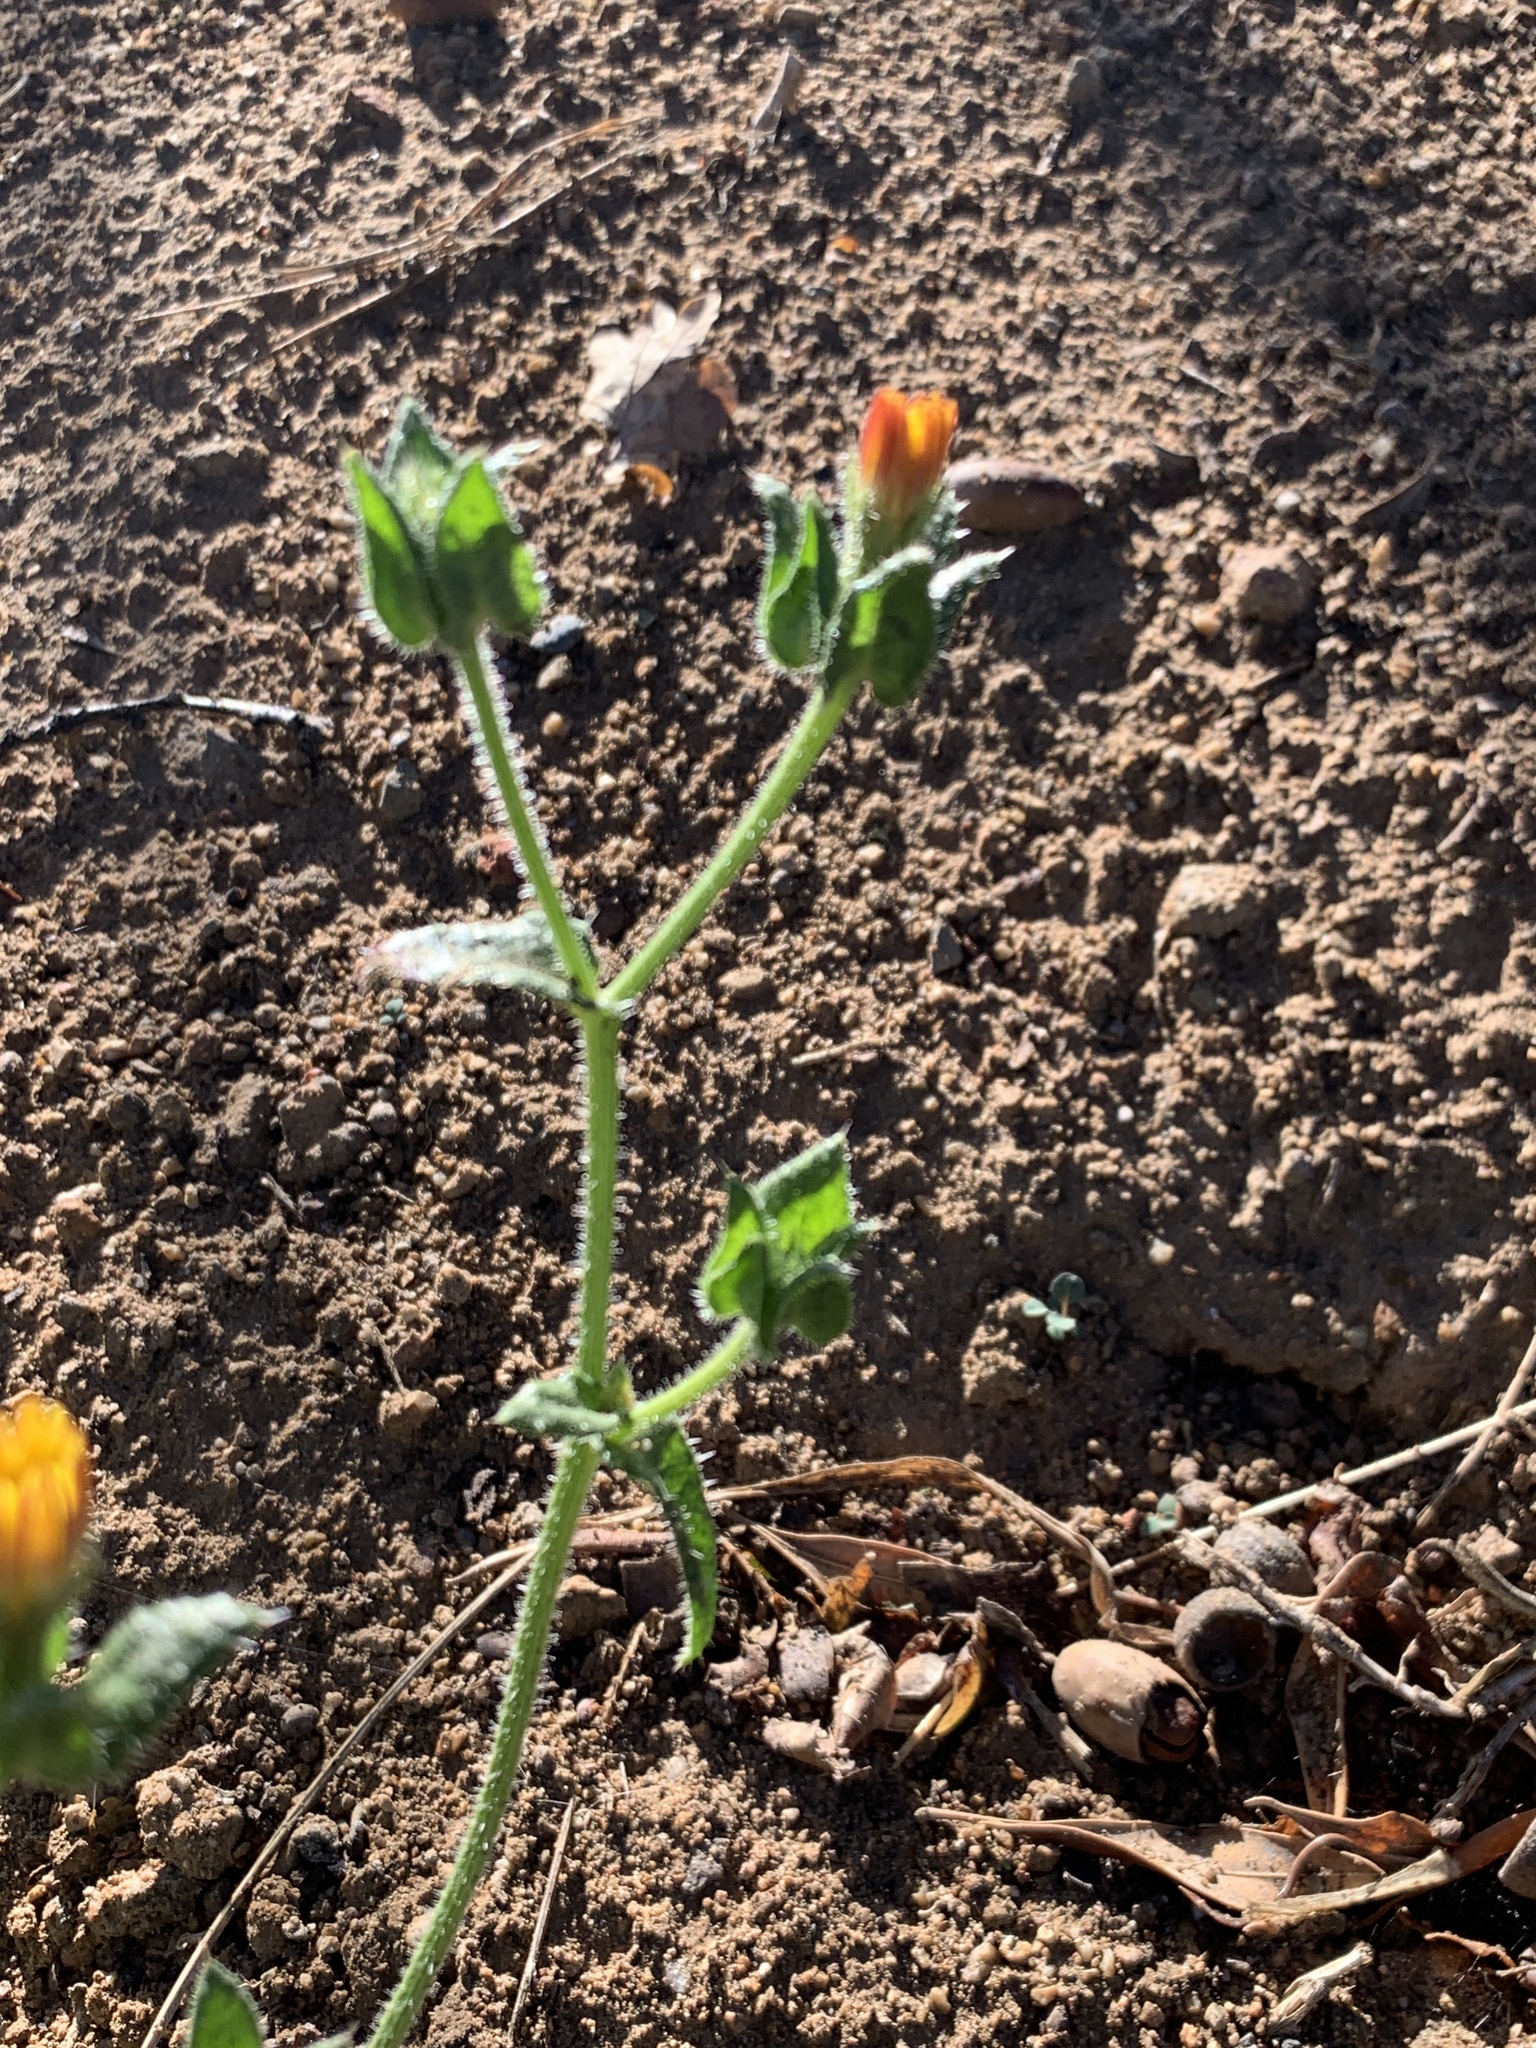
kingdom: Plantae
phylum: Tracheophyta
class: Magnoliopsida
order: Asterales
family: Asteraceae
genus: Helminthotheca
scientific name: Helminthotheca echioides
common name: Ox-tongue
